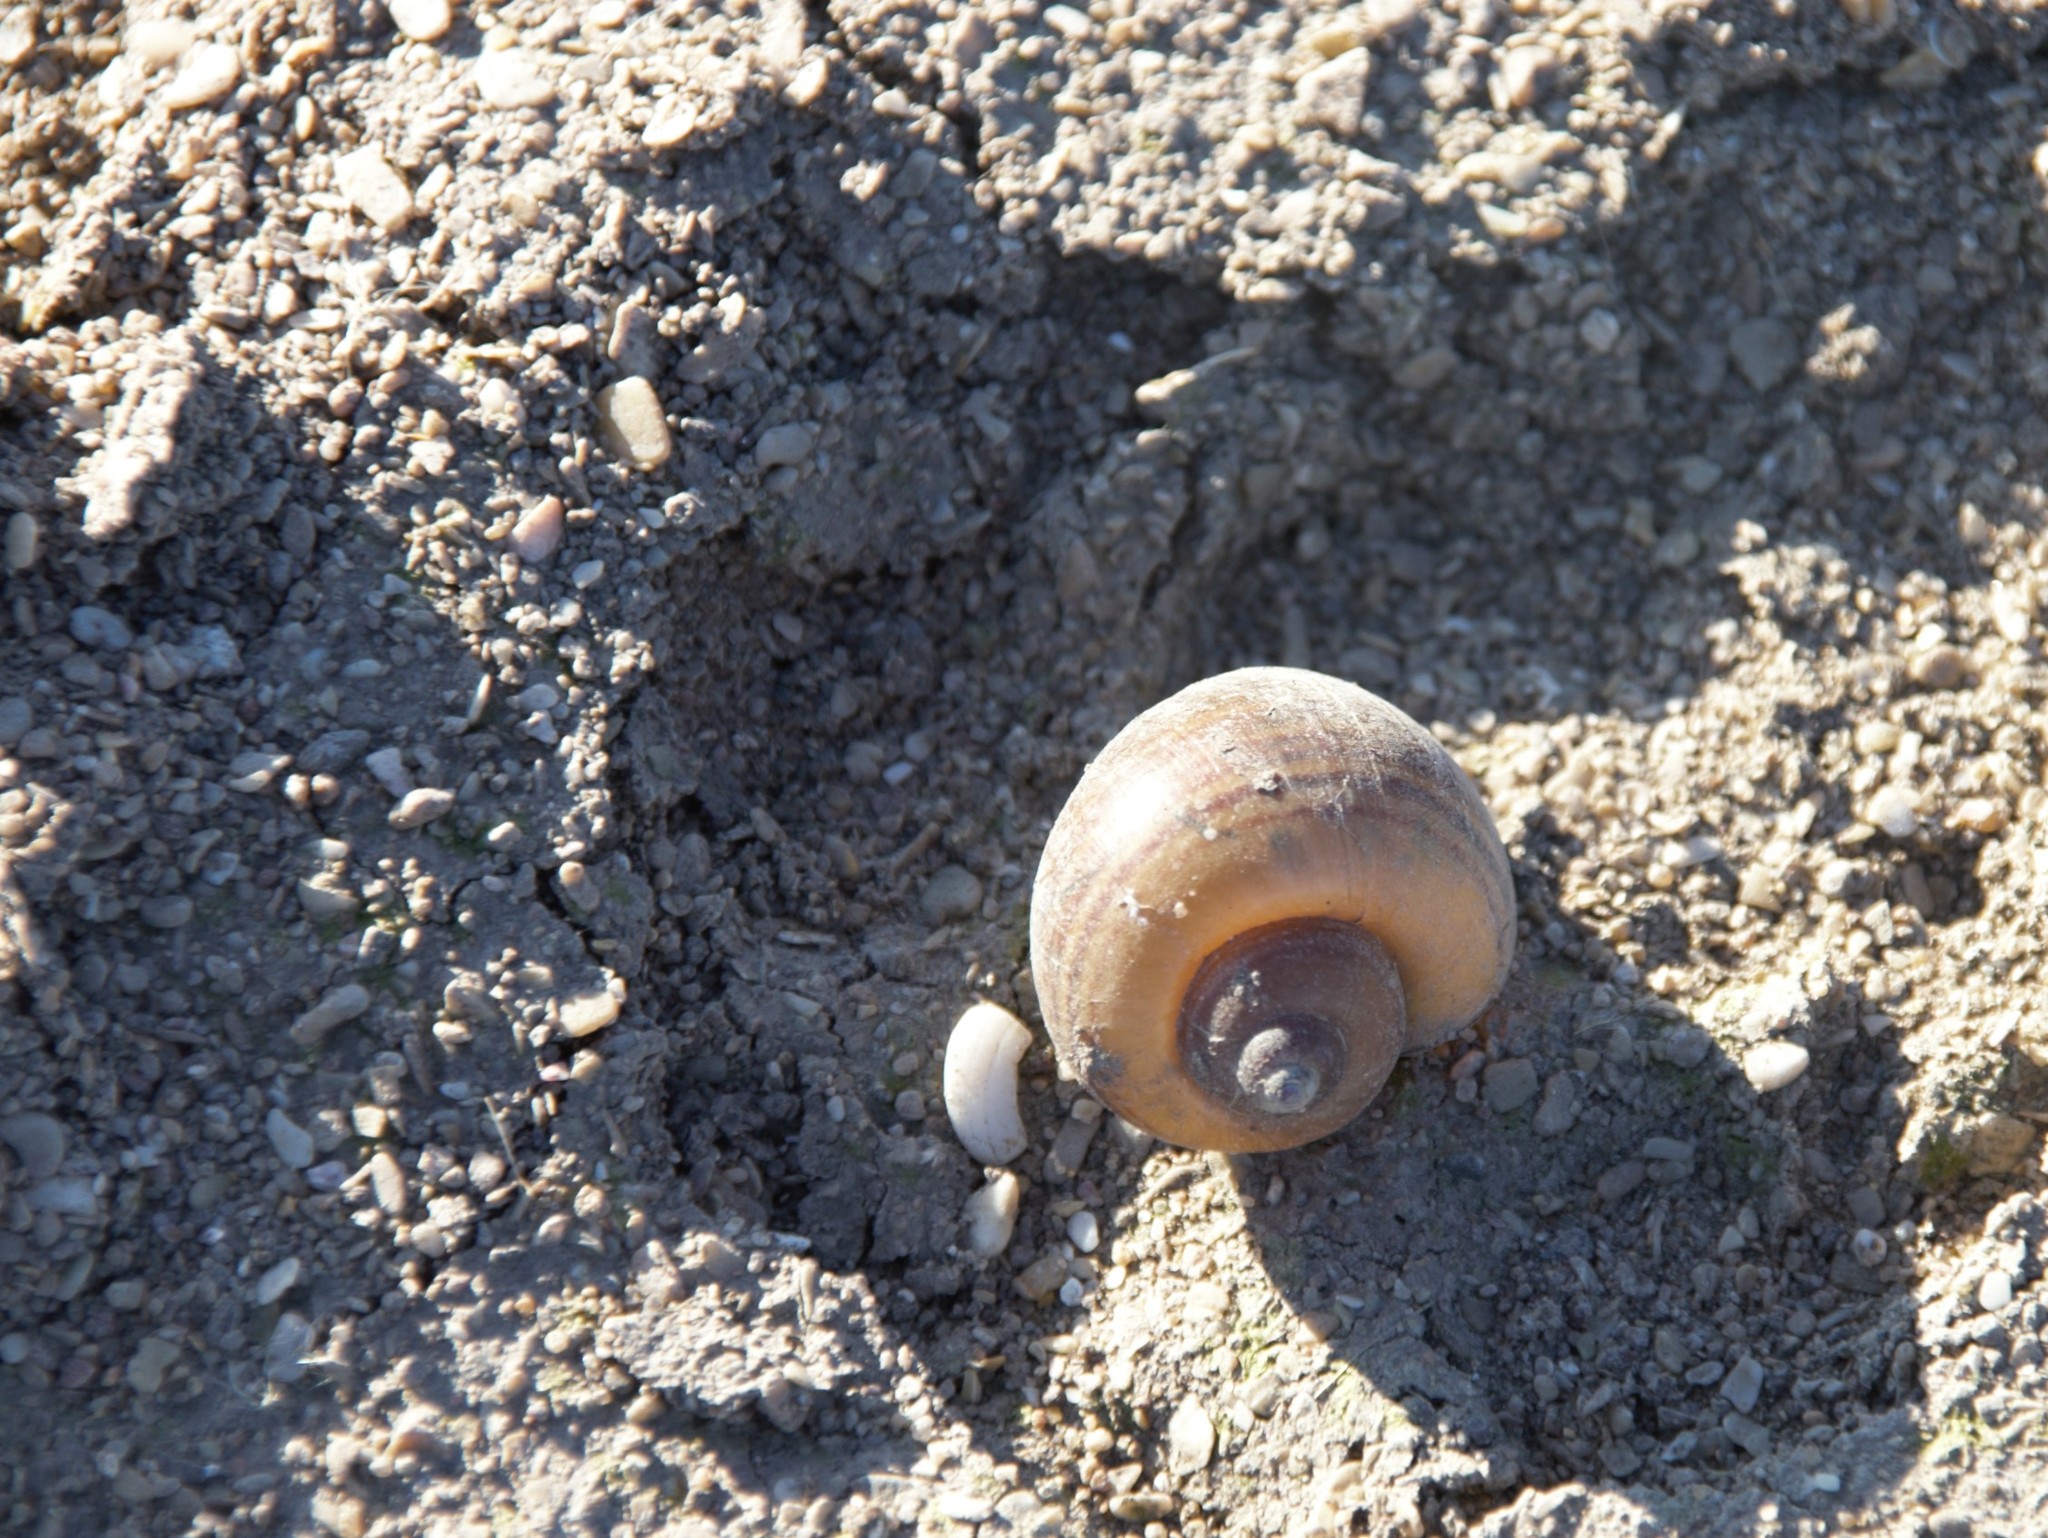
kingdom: Animalia
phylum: Mollusca
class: Gastropoda
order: Architaenioglossa
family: Ampullariidae
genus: Pomacea
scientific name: Pomacea canaliculata
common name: Channeled applesnail
